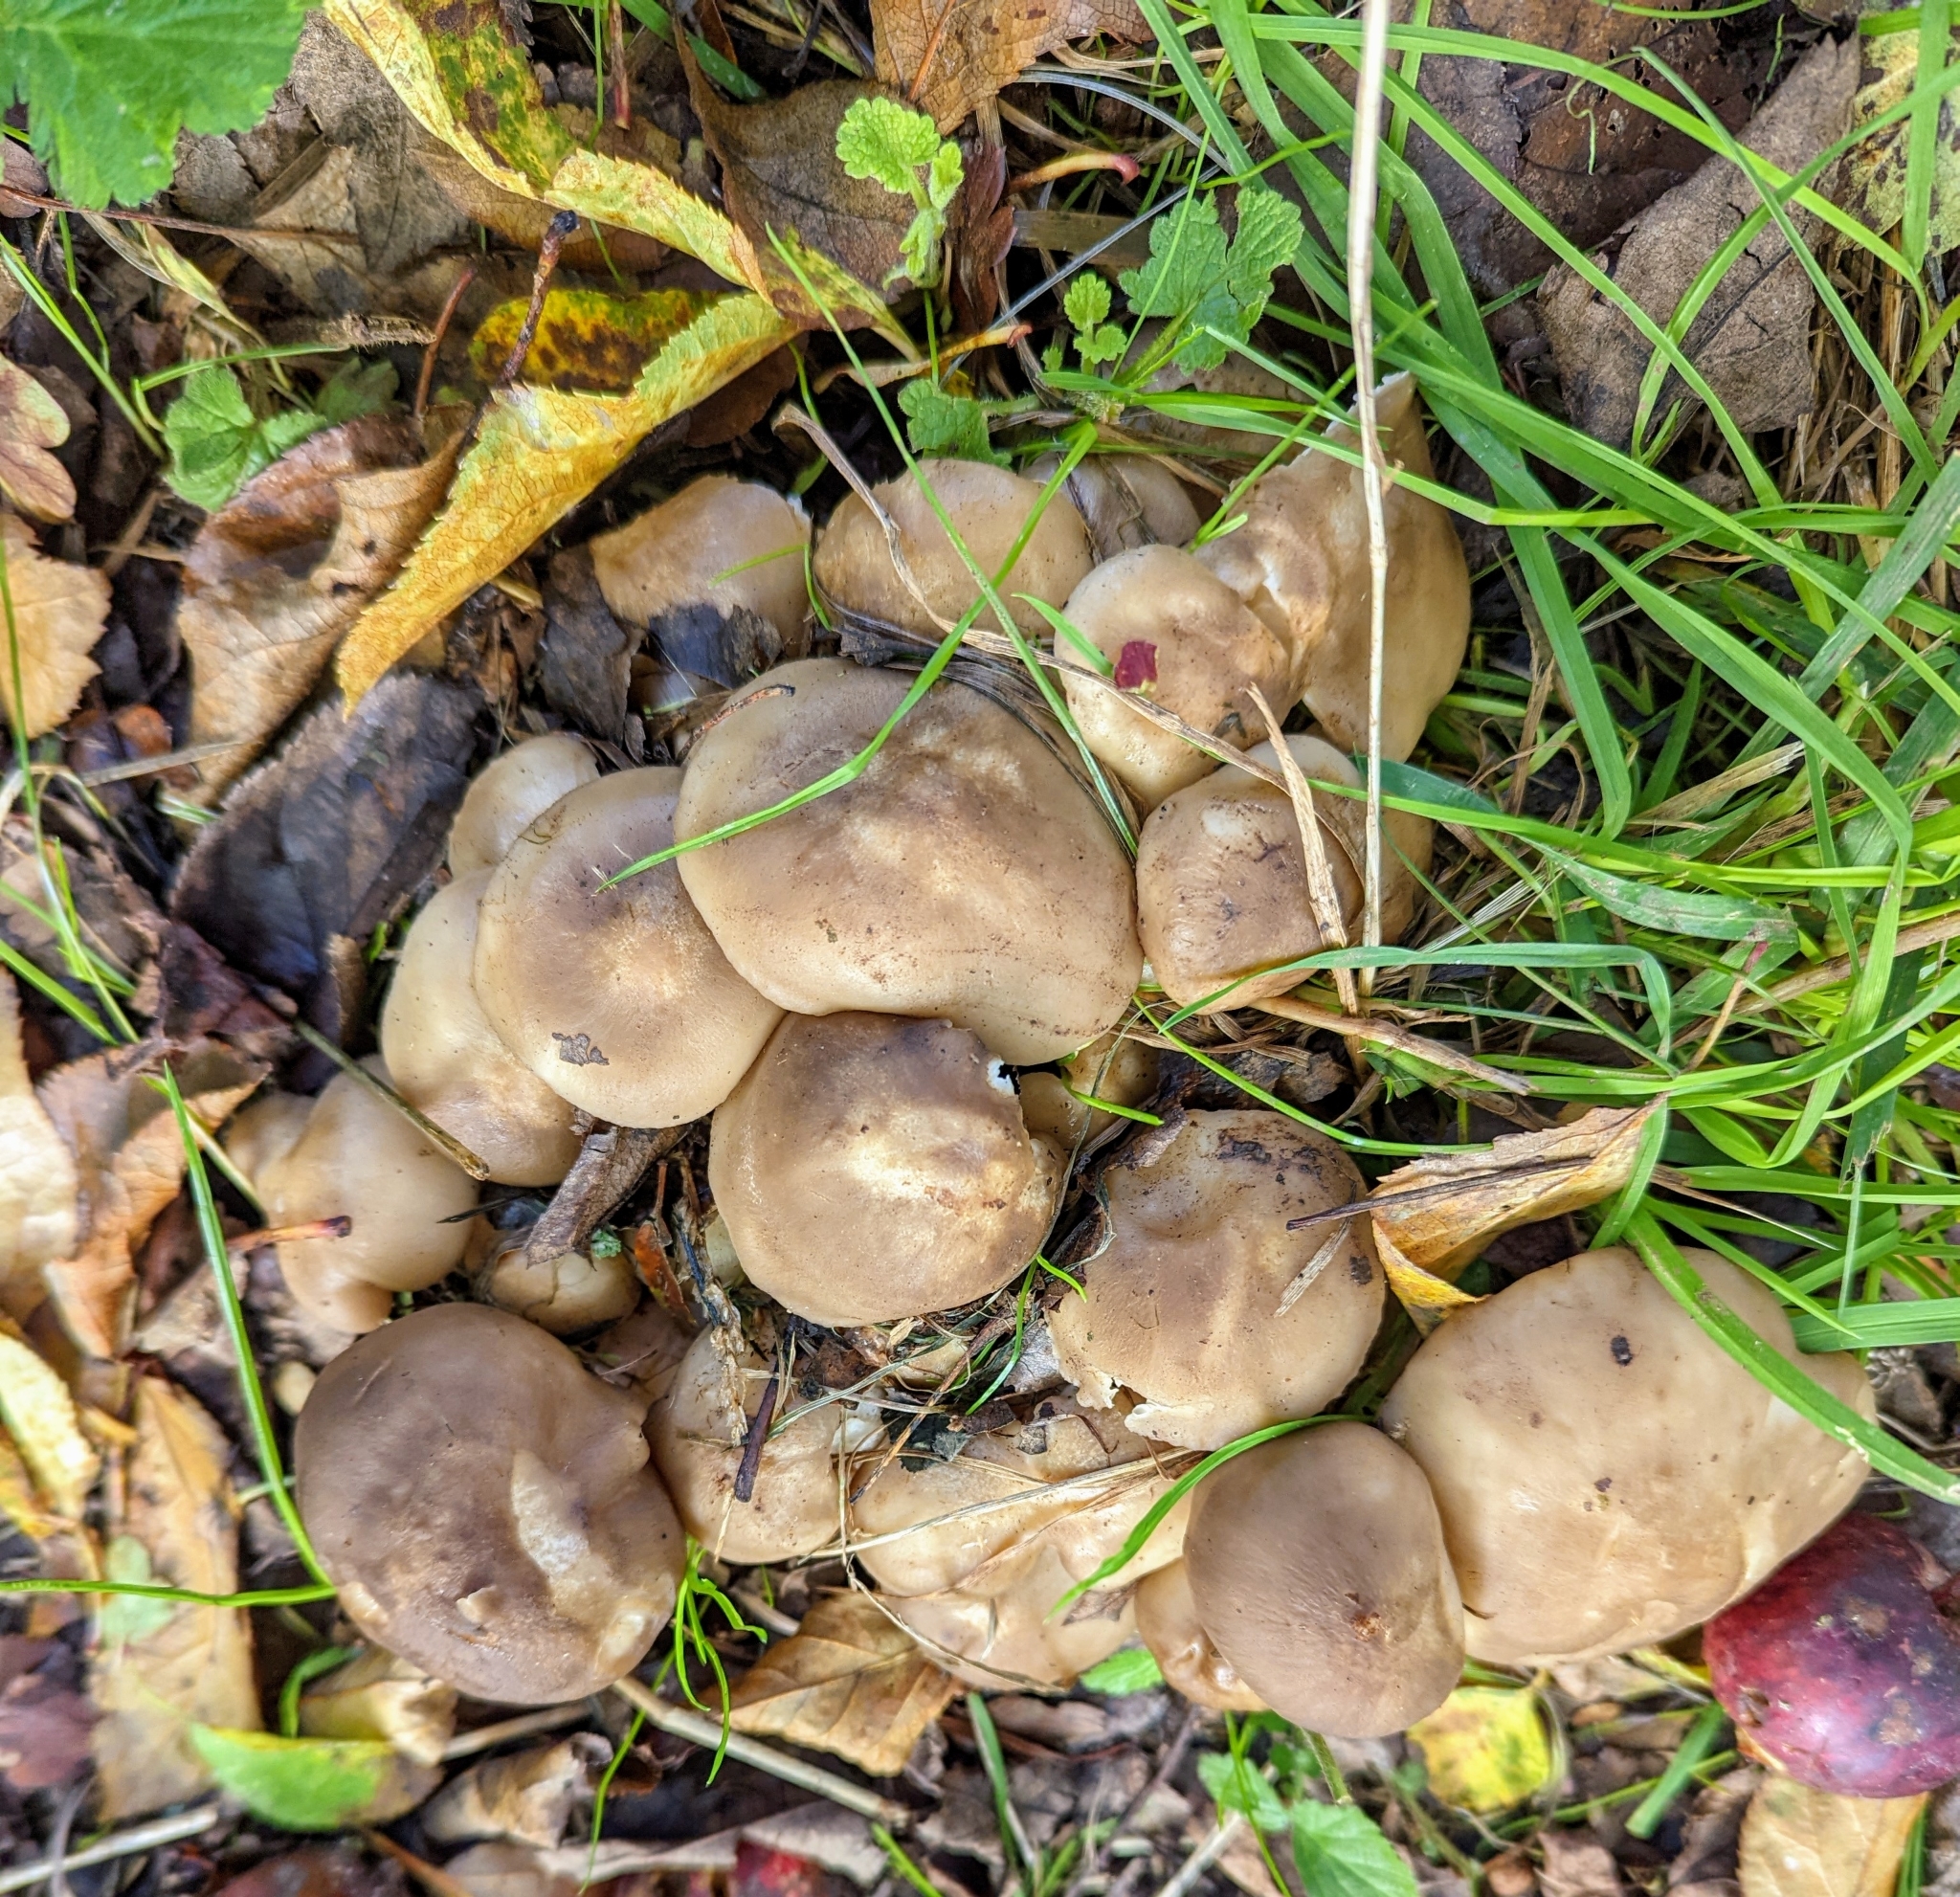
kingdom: Fungi
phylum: Basidiomycota
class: Agaricomycetes
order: Agaricales
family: Lyophyllaceae
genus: Lyophyllum
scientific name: Lyophyllum decastes
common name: Clustered domecap
